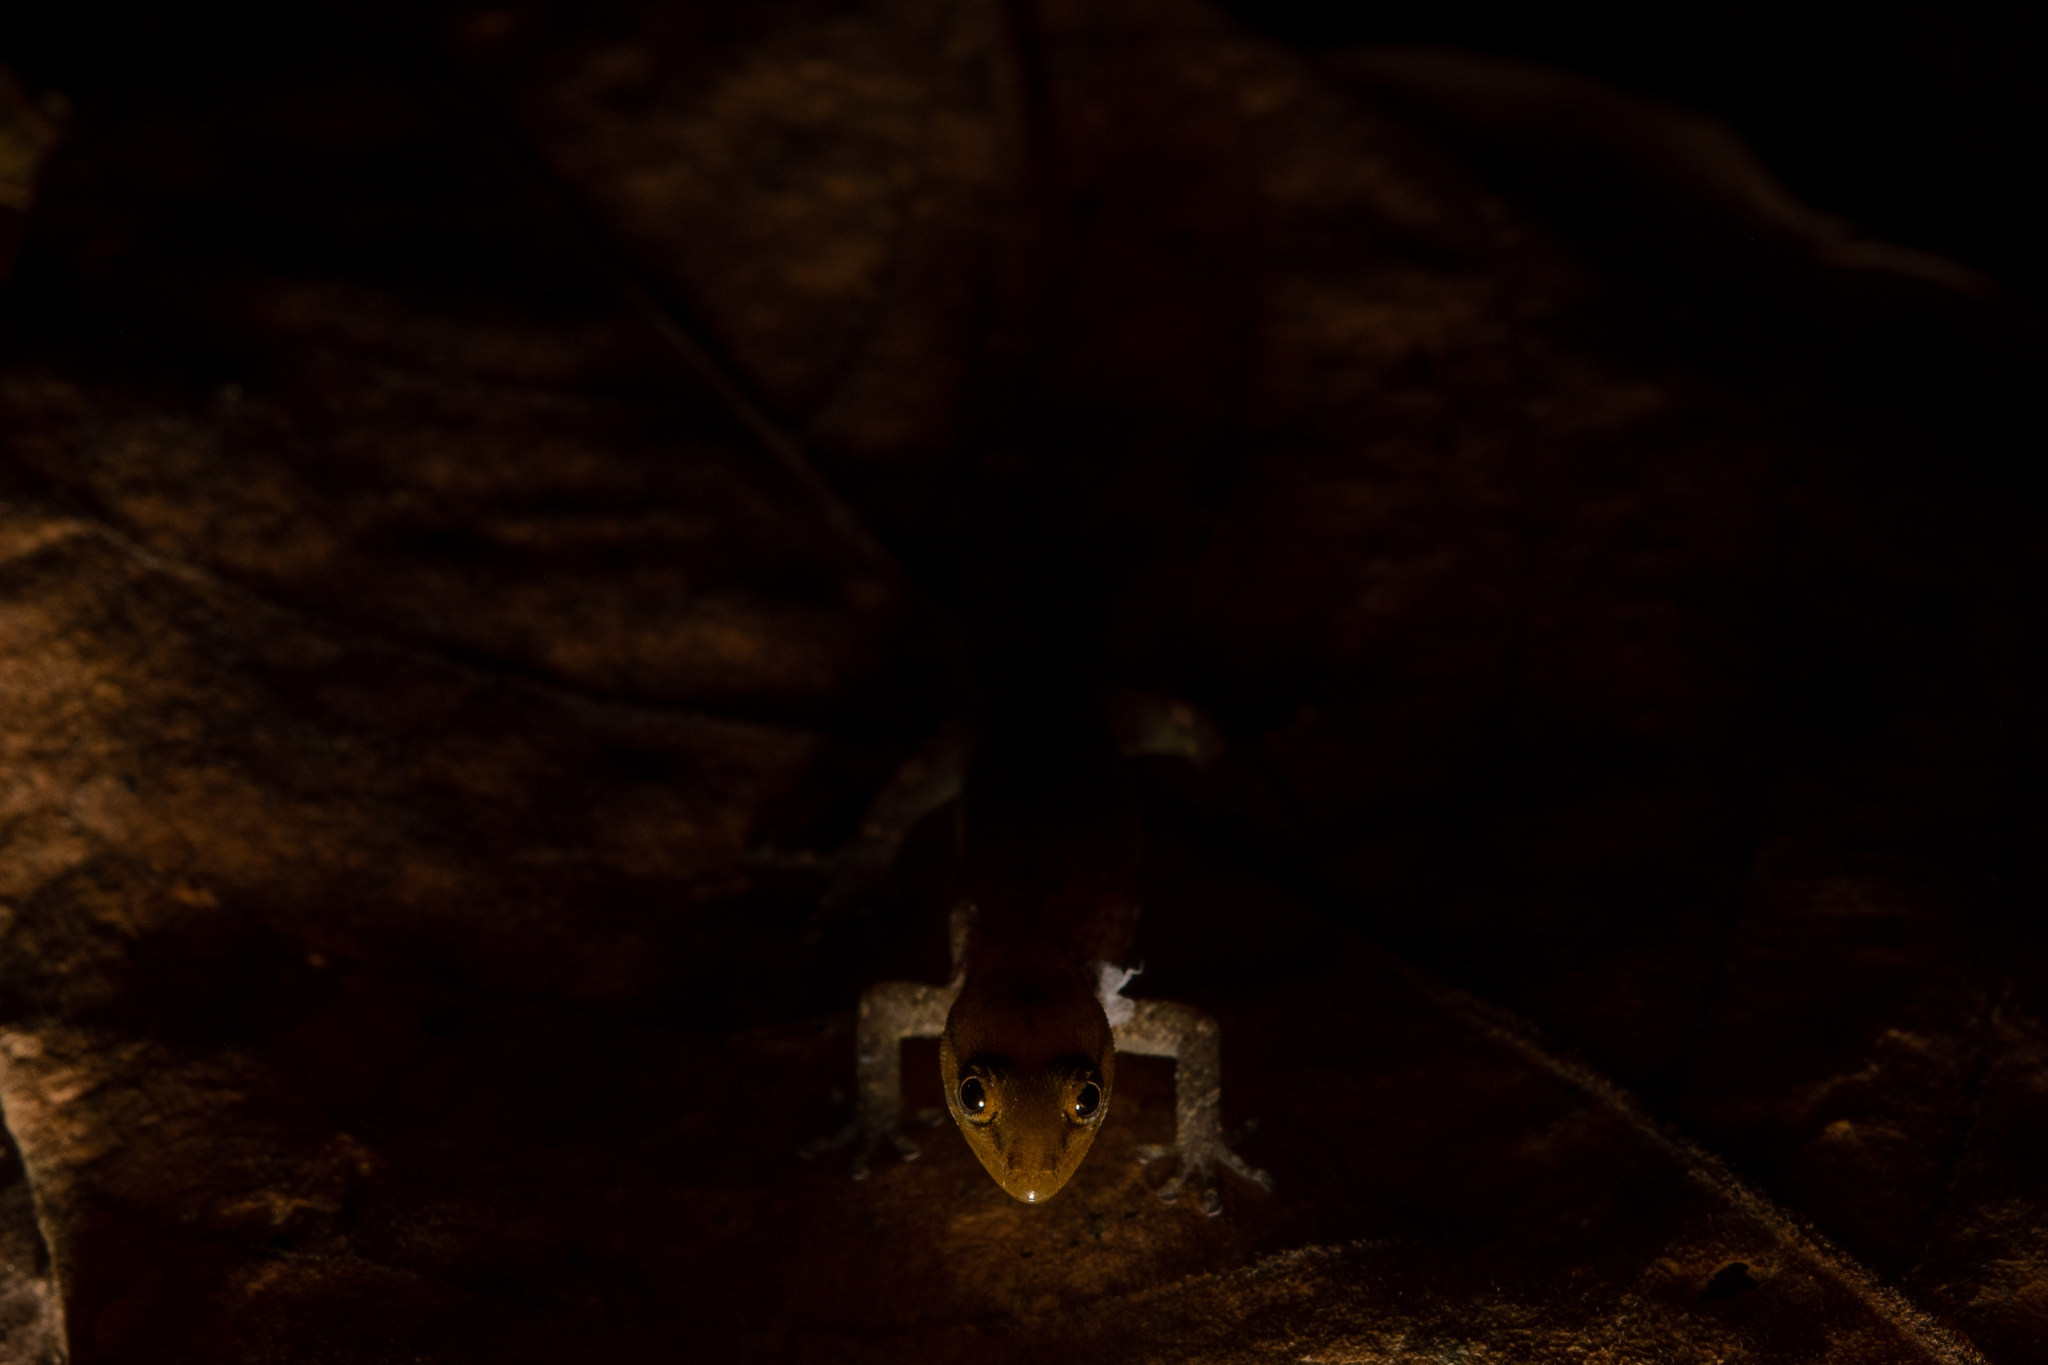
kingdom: Animalia
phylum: Chordata
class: Squamata
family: Sphaerodactylidae
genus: Sphaerodactylus
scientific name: Sphaerodactylus continentalis
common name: Upper central american geckolet
